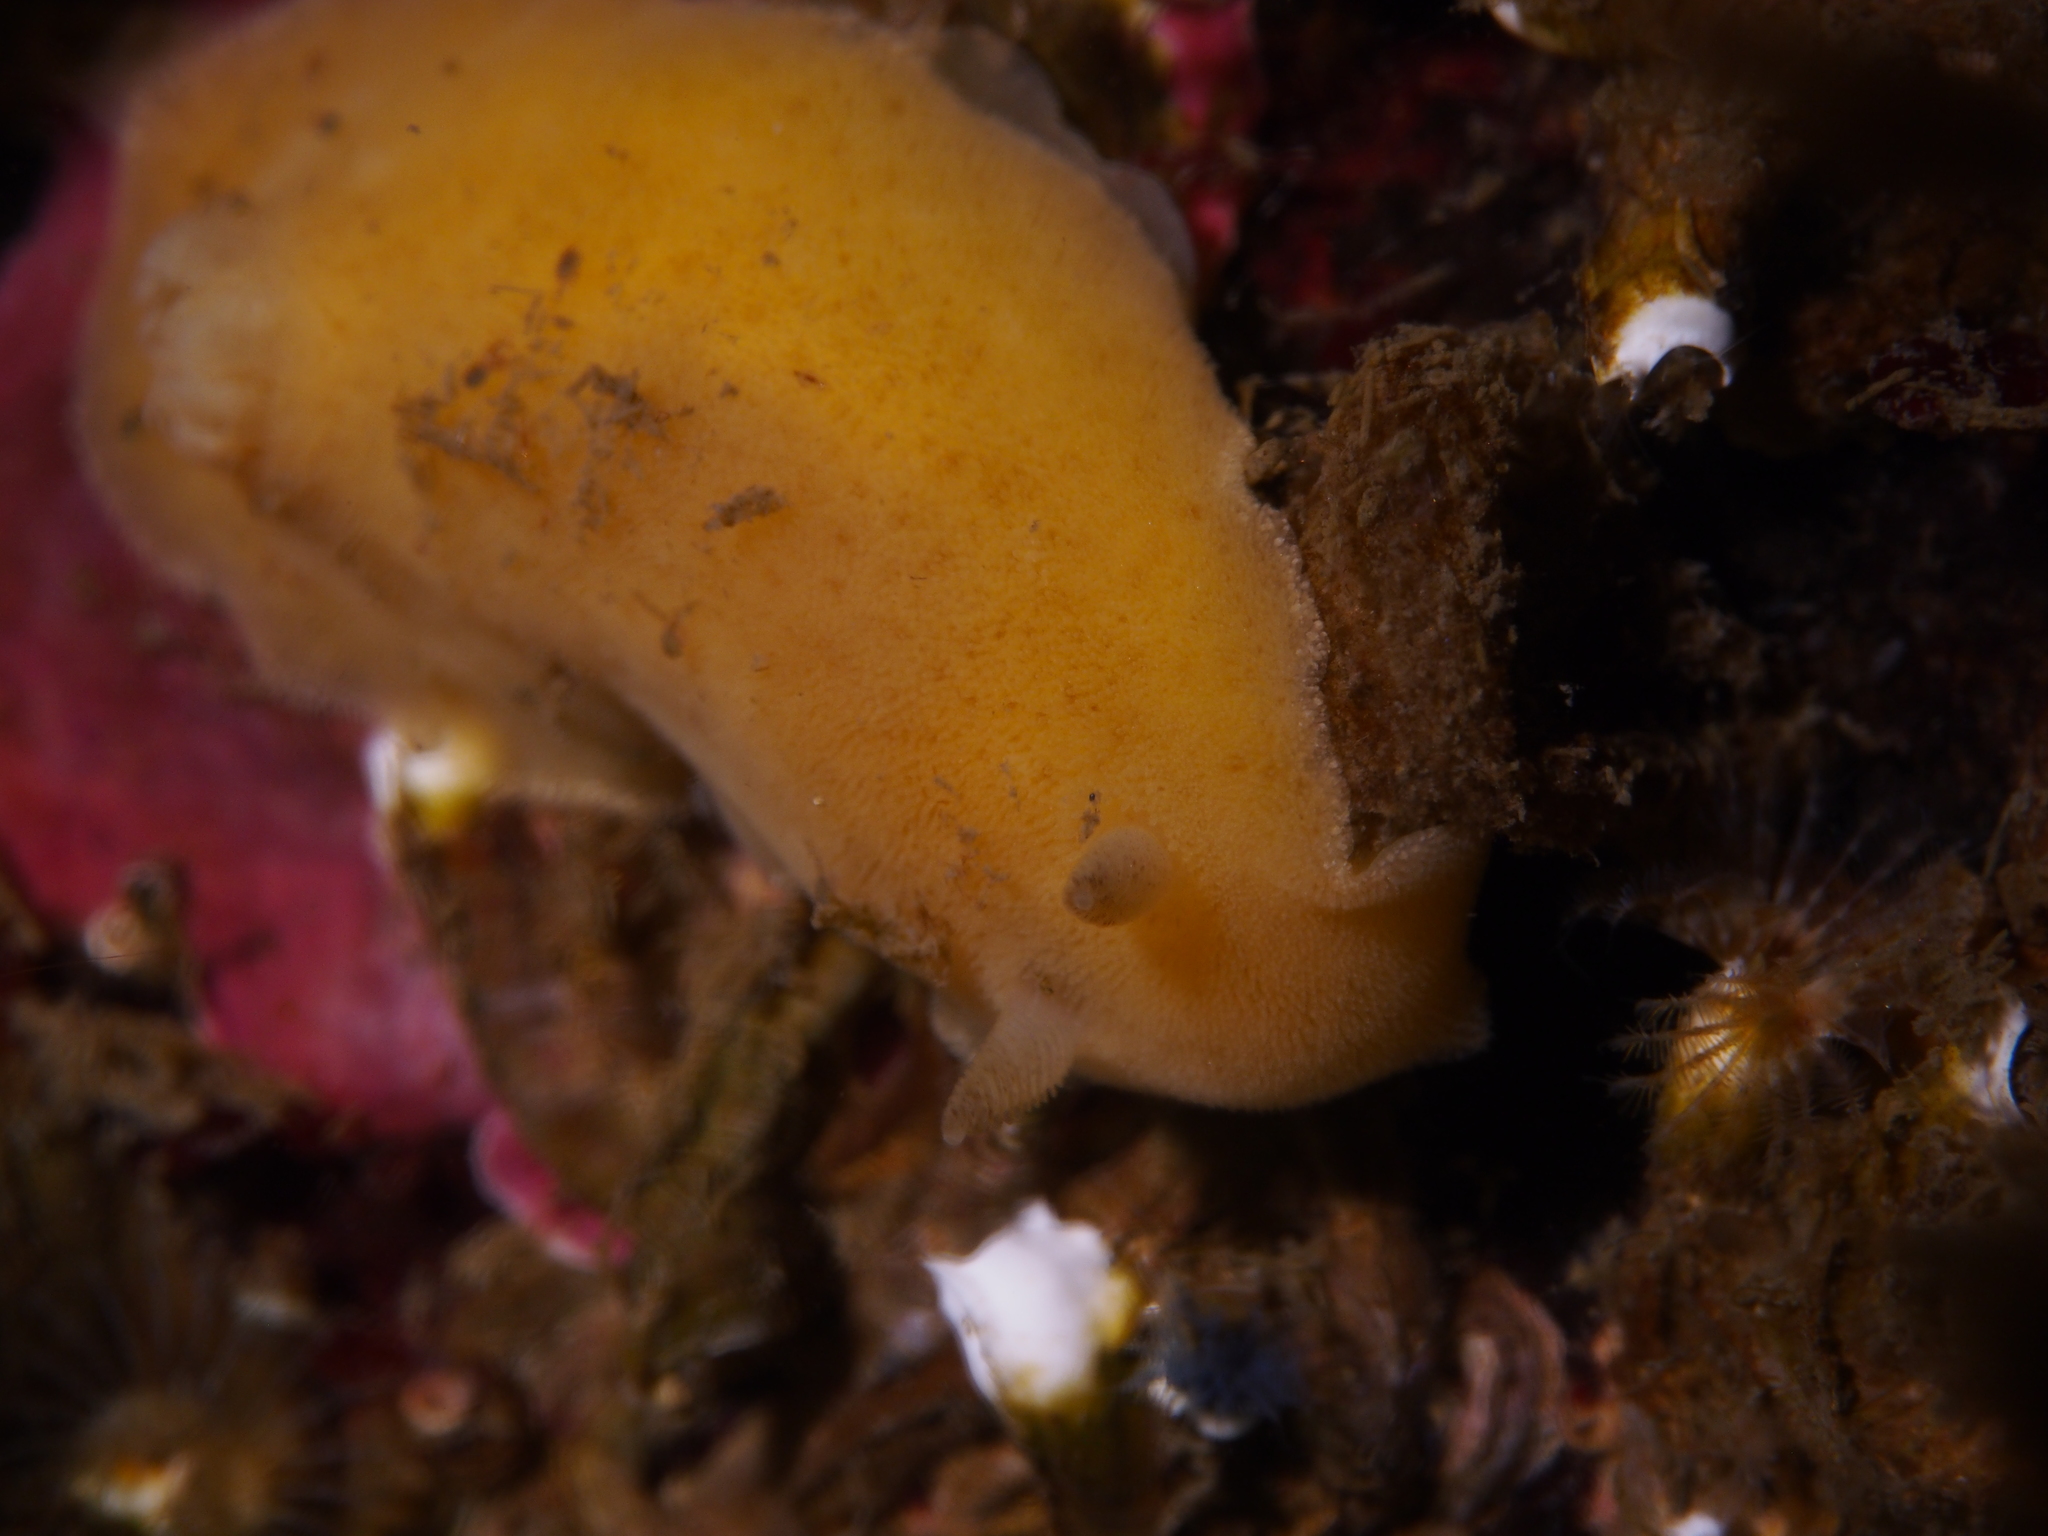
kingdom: Animalia
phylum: Mollusca
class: Gastropoda
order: Nudibranchia
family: Discodorididae
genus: Jorunna
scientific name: Jorunna tomentosa
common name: Grey sea slug
